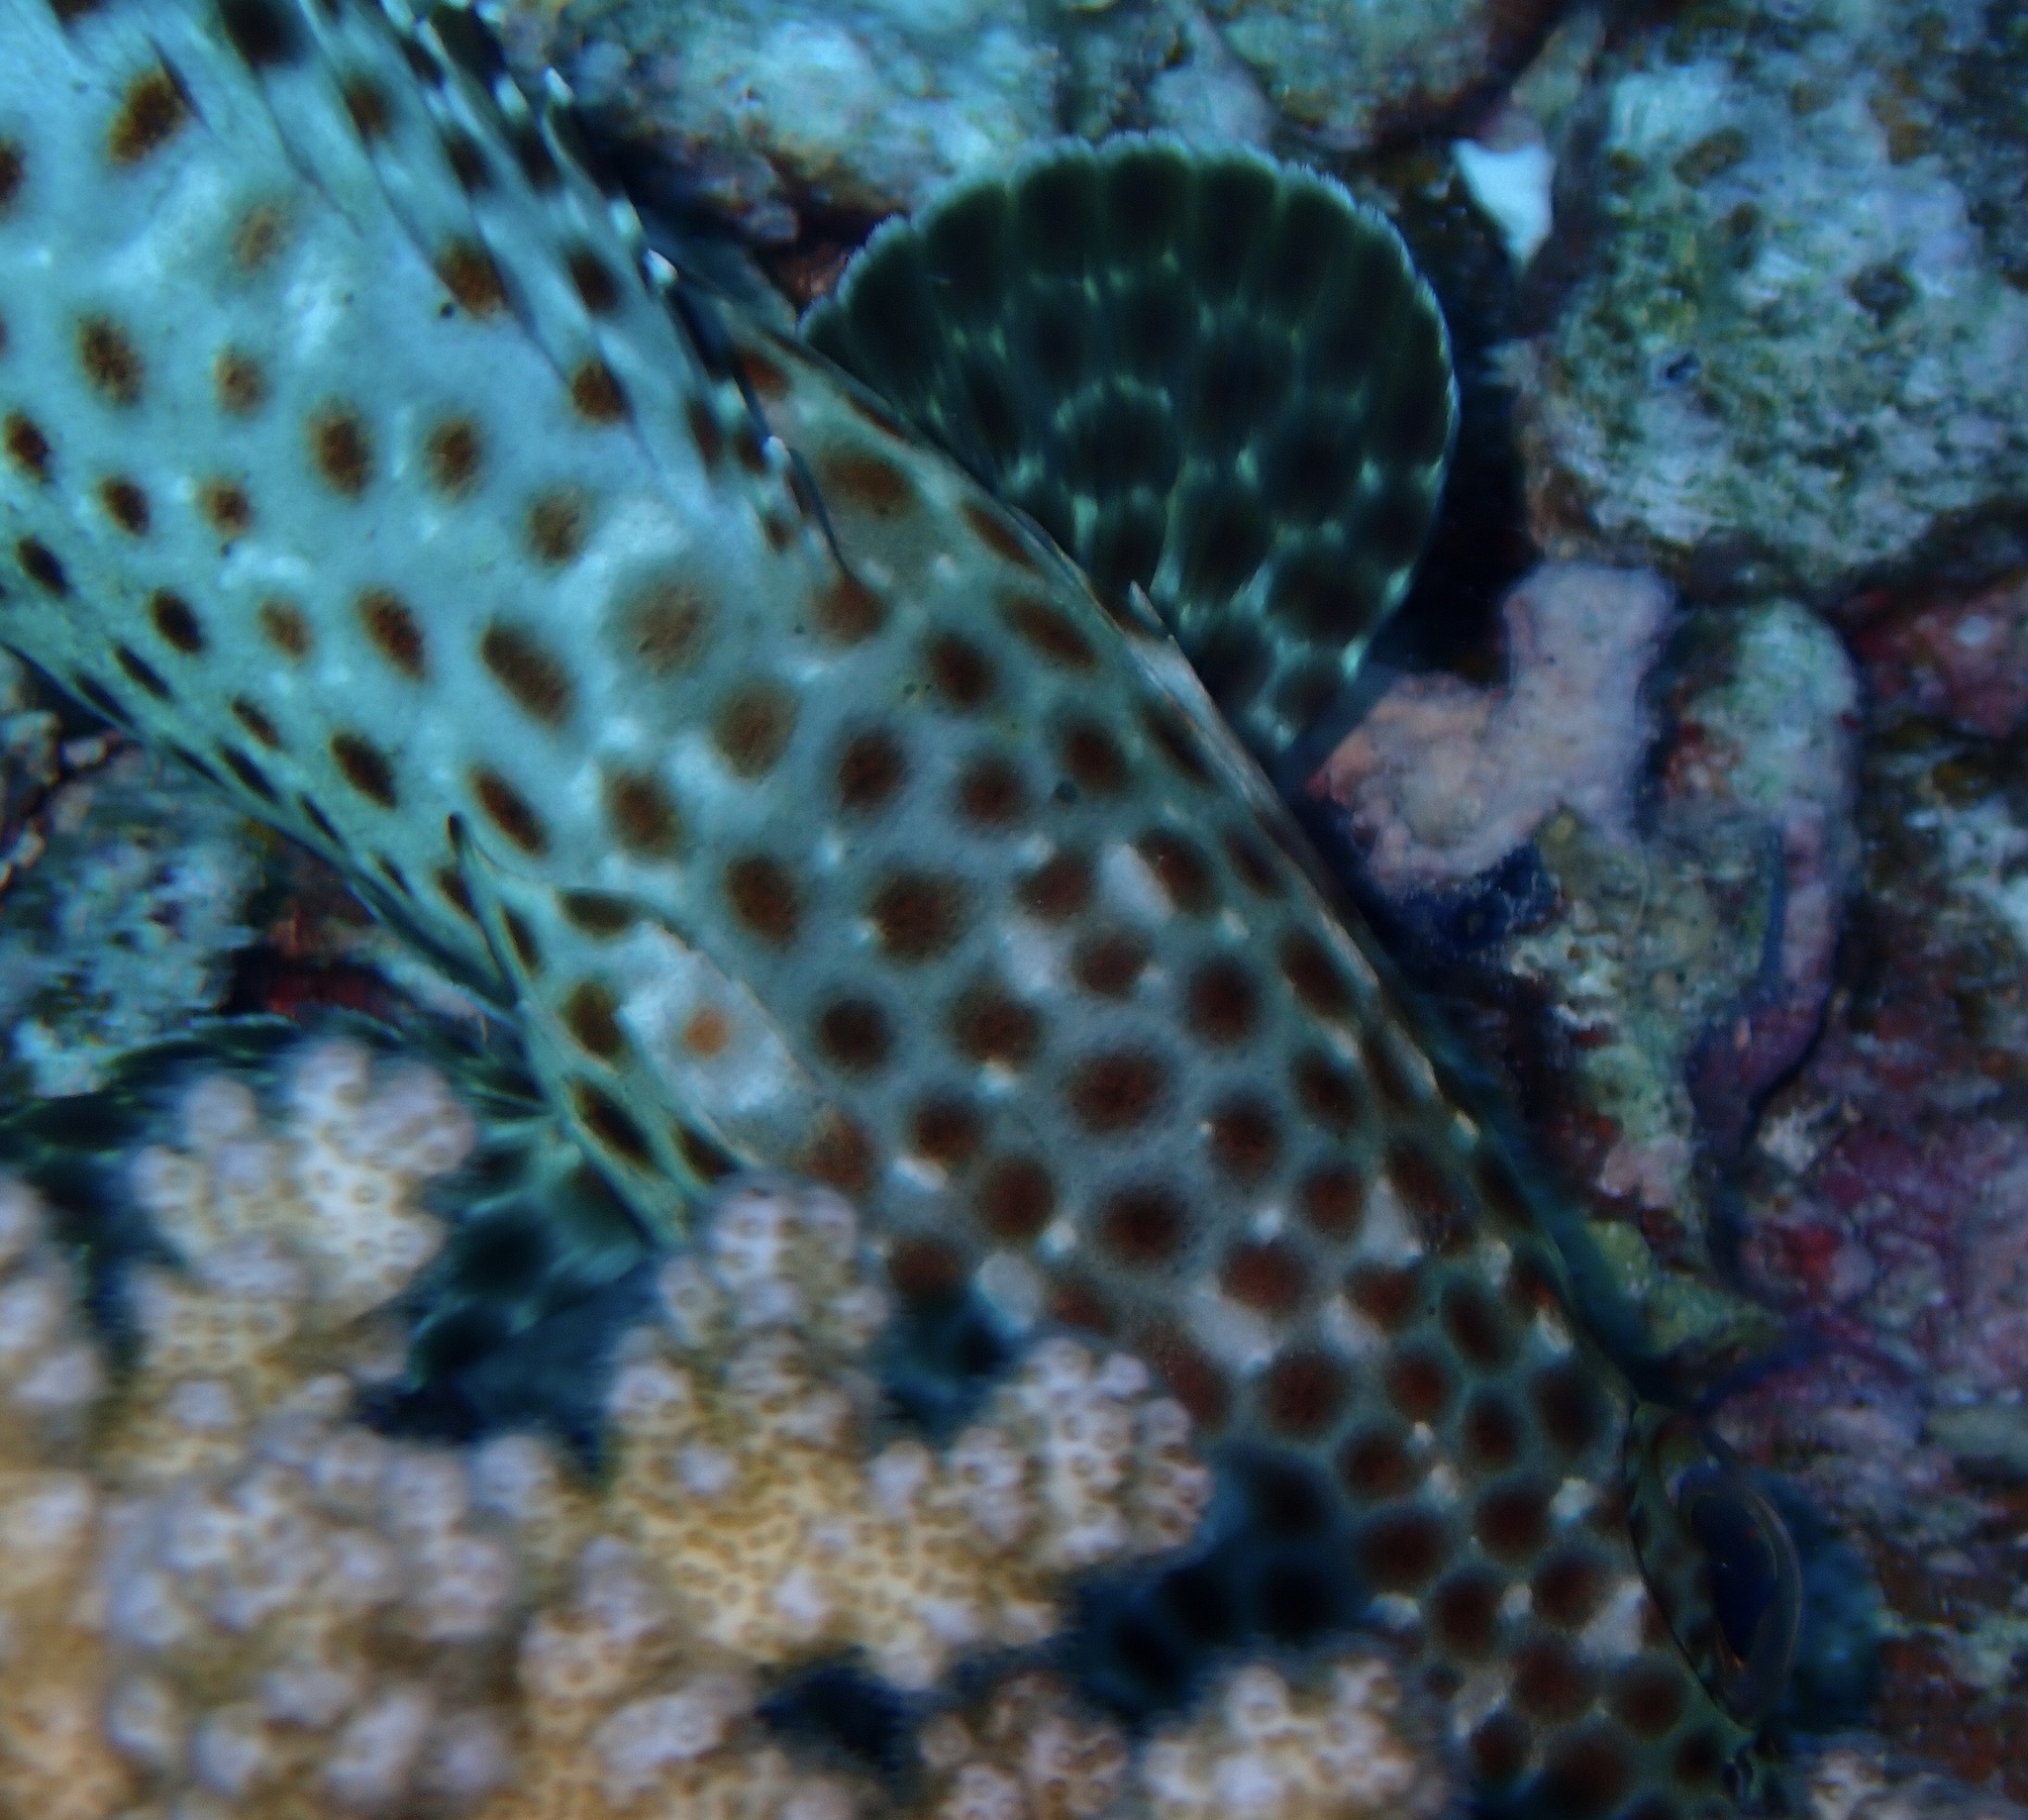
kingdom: Animalia
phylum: Chordata
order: Perciformes
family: Serranidae
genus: Epinephelus
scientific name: Epinephelus tauvina
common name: Greasy grouper
